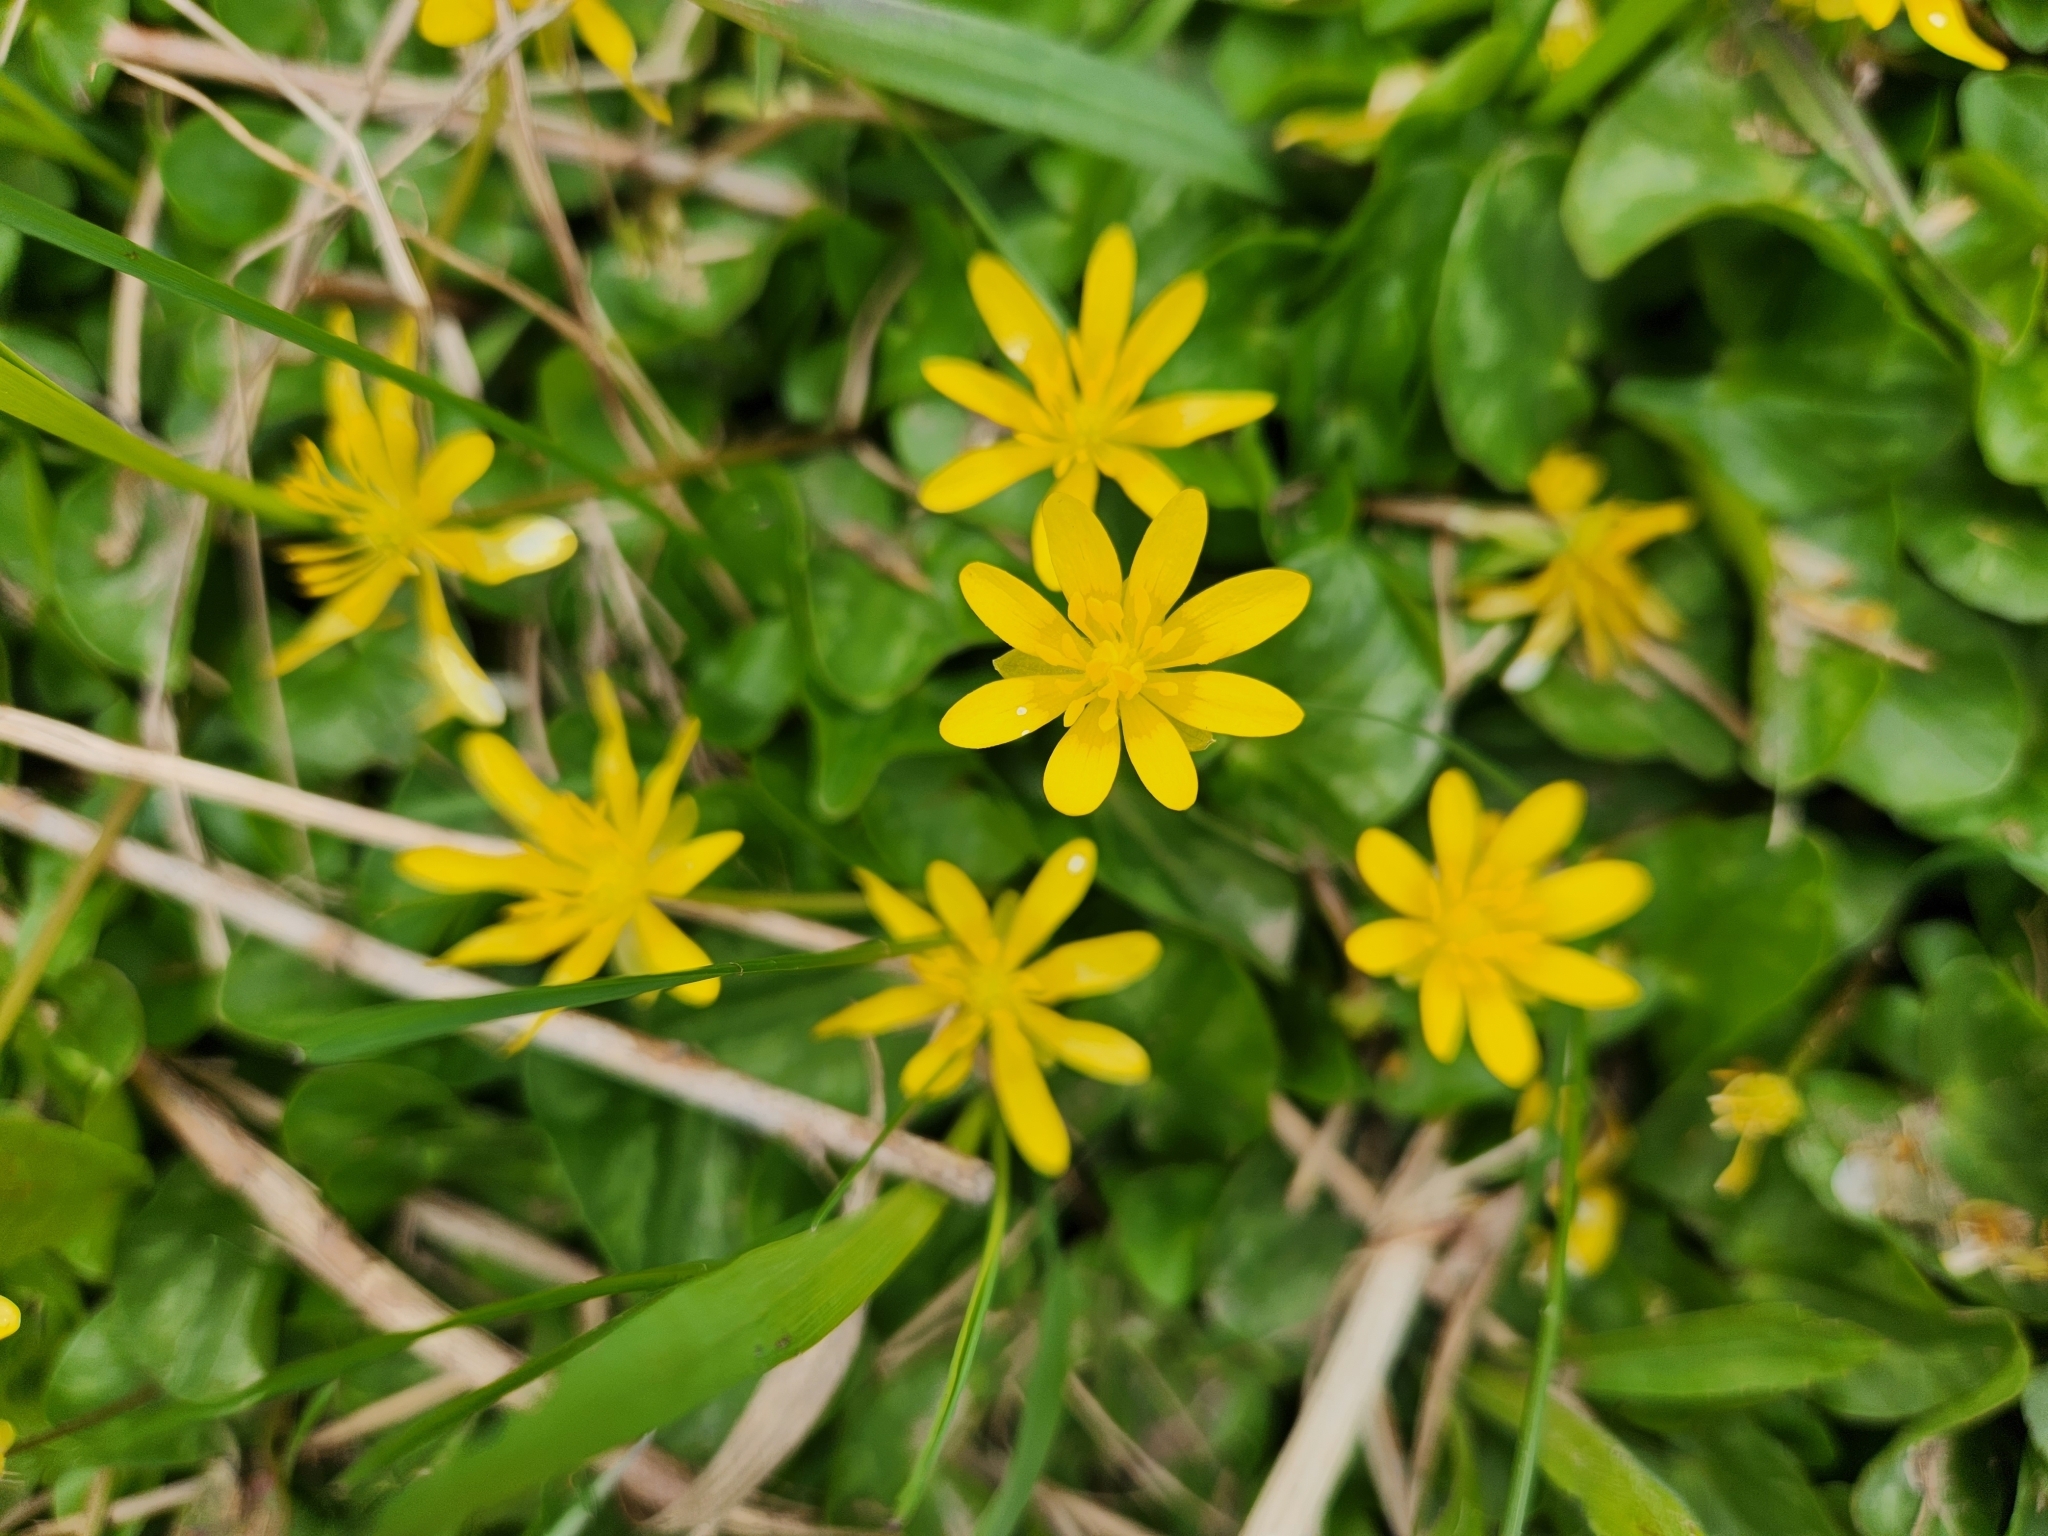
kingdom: Plantae
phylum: Tracheophyta
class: Magnoliopsida
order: Ranunculales
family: Ranunculaceae
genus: Ficaria
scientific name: Ficaria verna
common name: Lesser celandine
